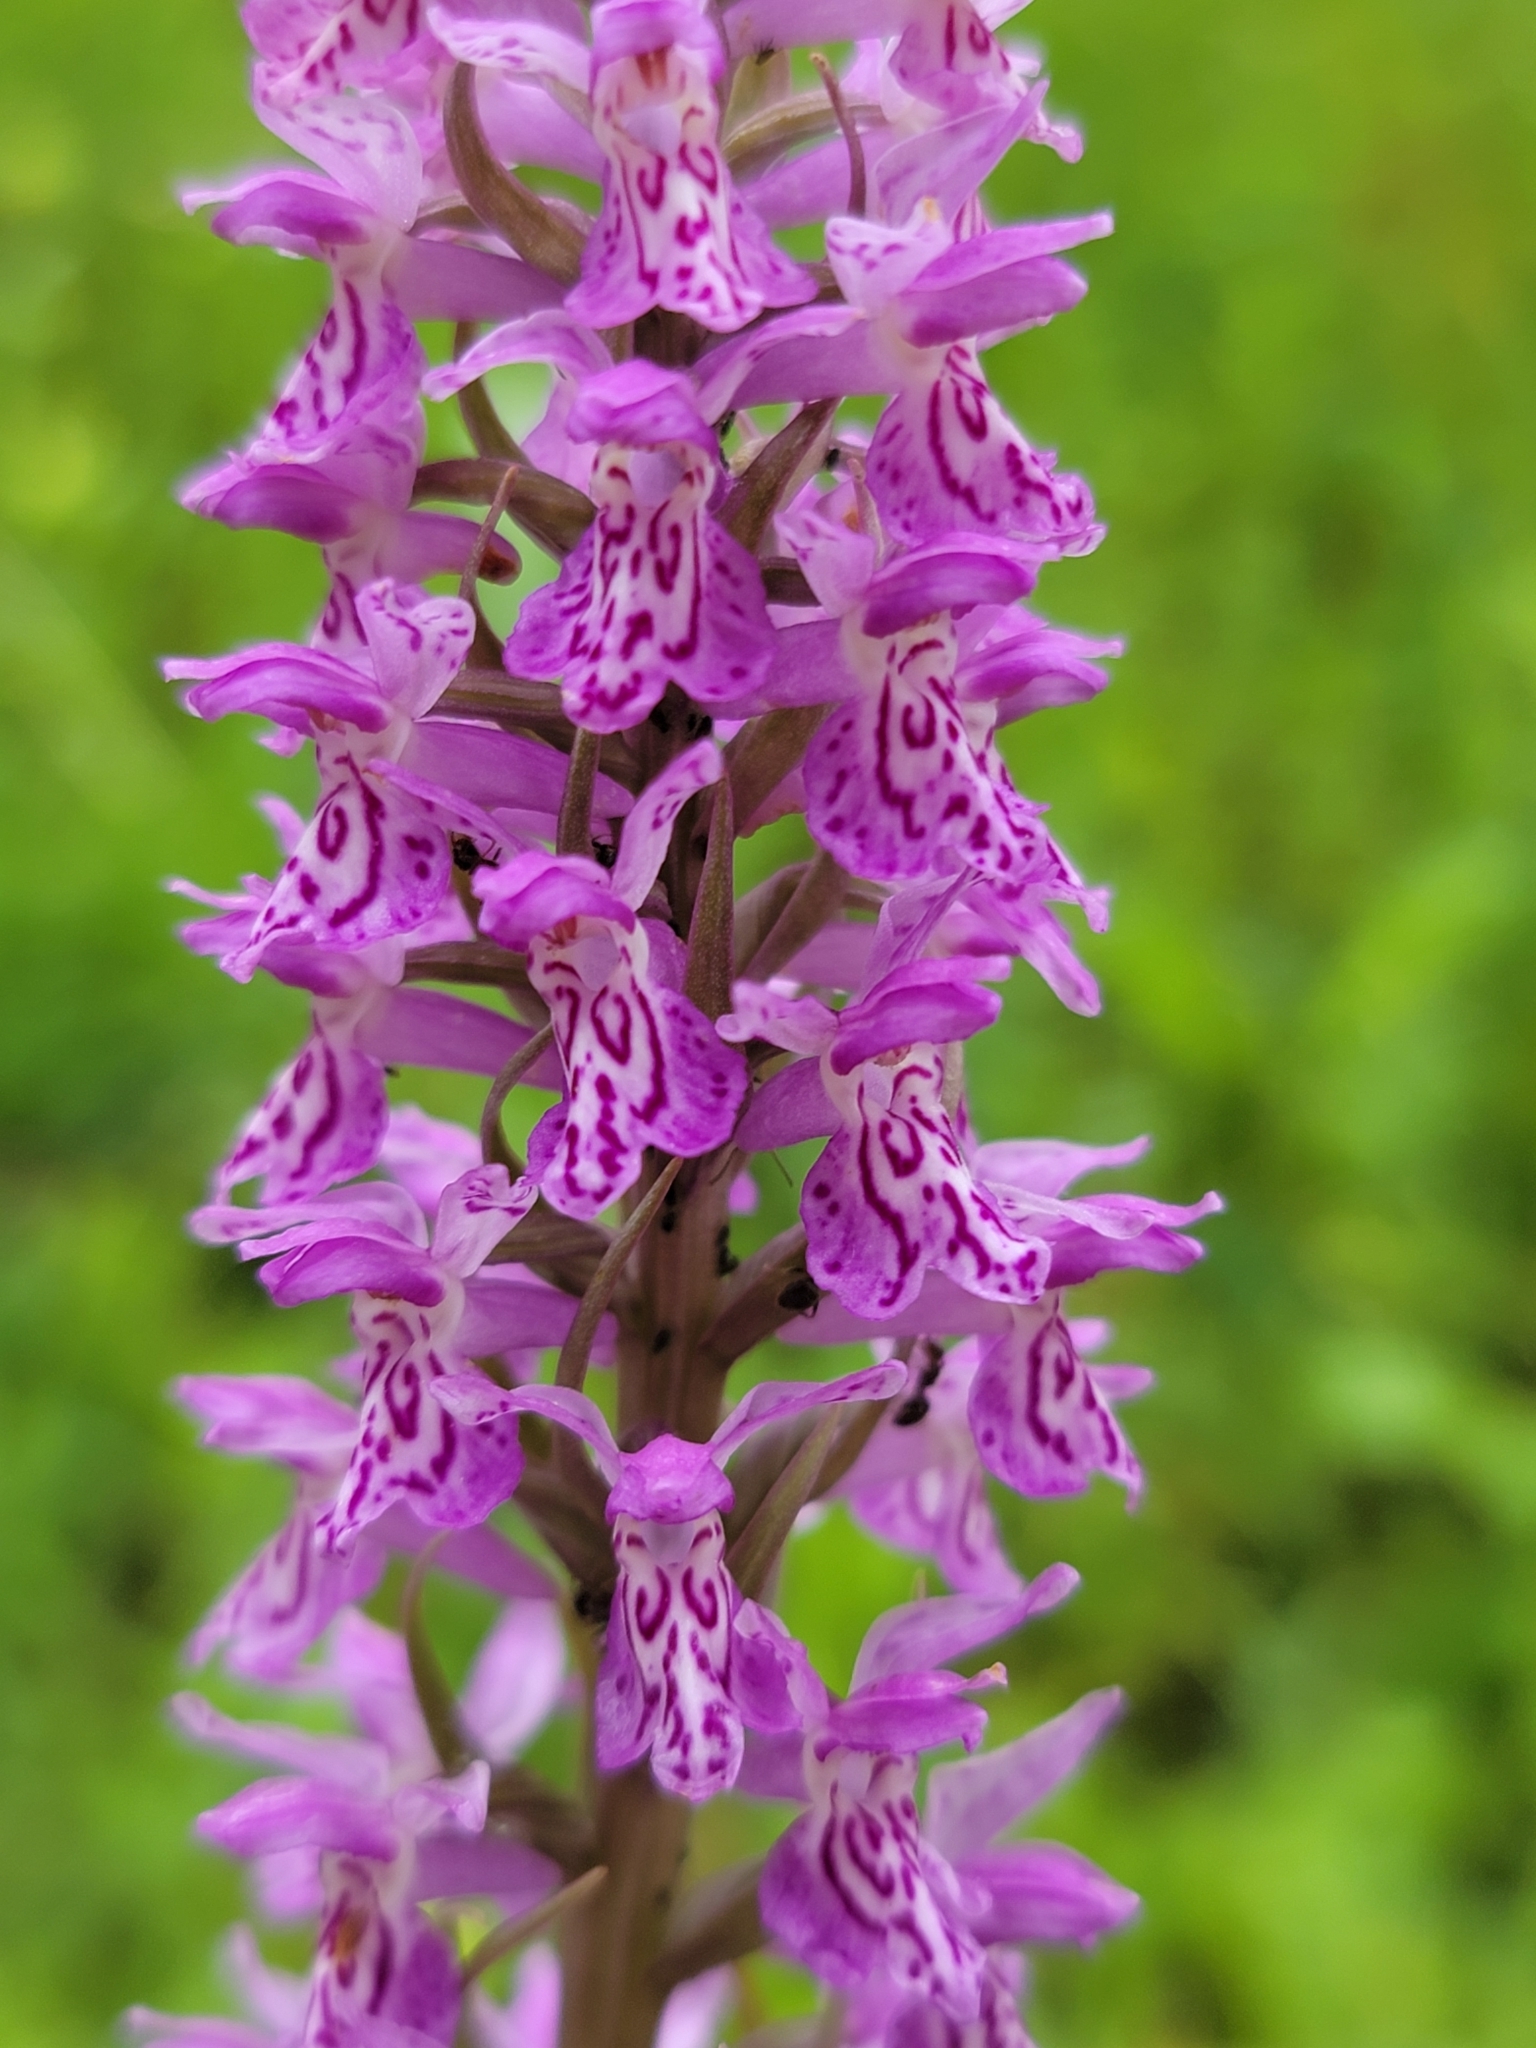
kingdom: Plantae
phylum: Tracheophyta
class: Liliopsida
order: Asparagales
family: Orchidaceae
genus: Dactylorhiza
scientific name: Dactylorhiza maculata
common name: Heath spotted-orchid
